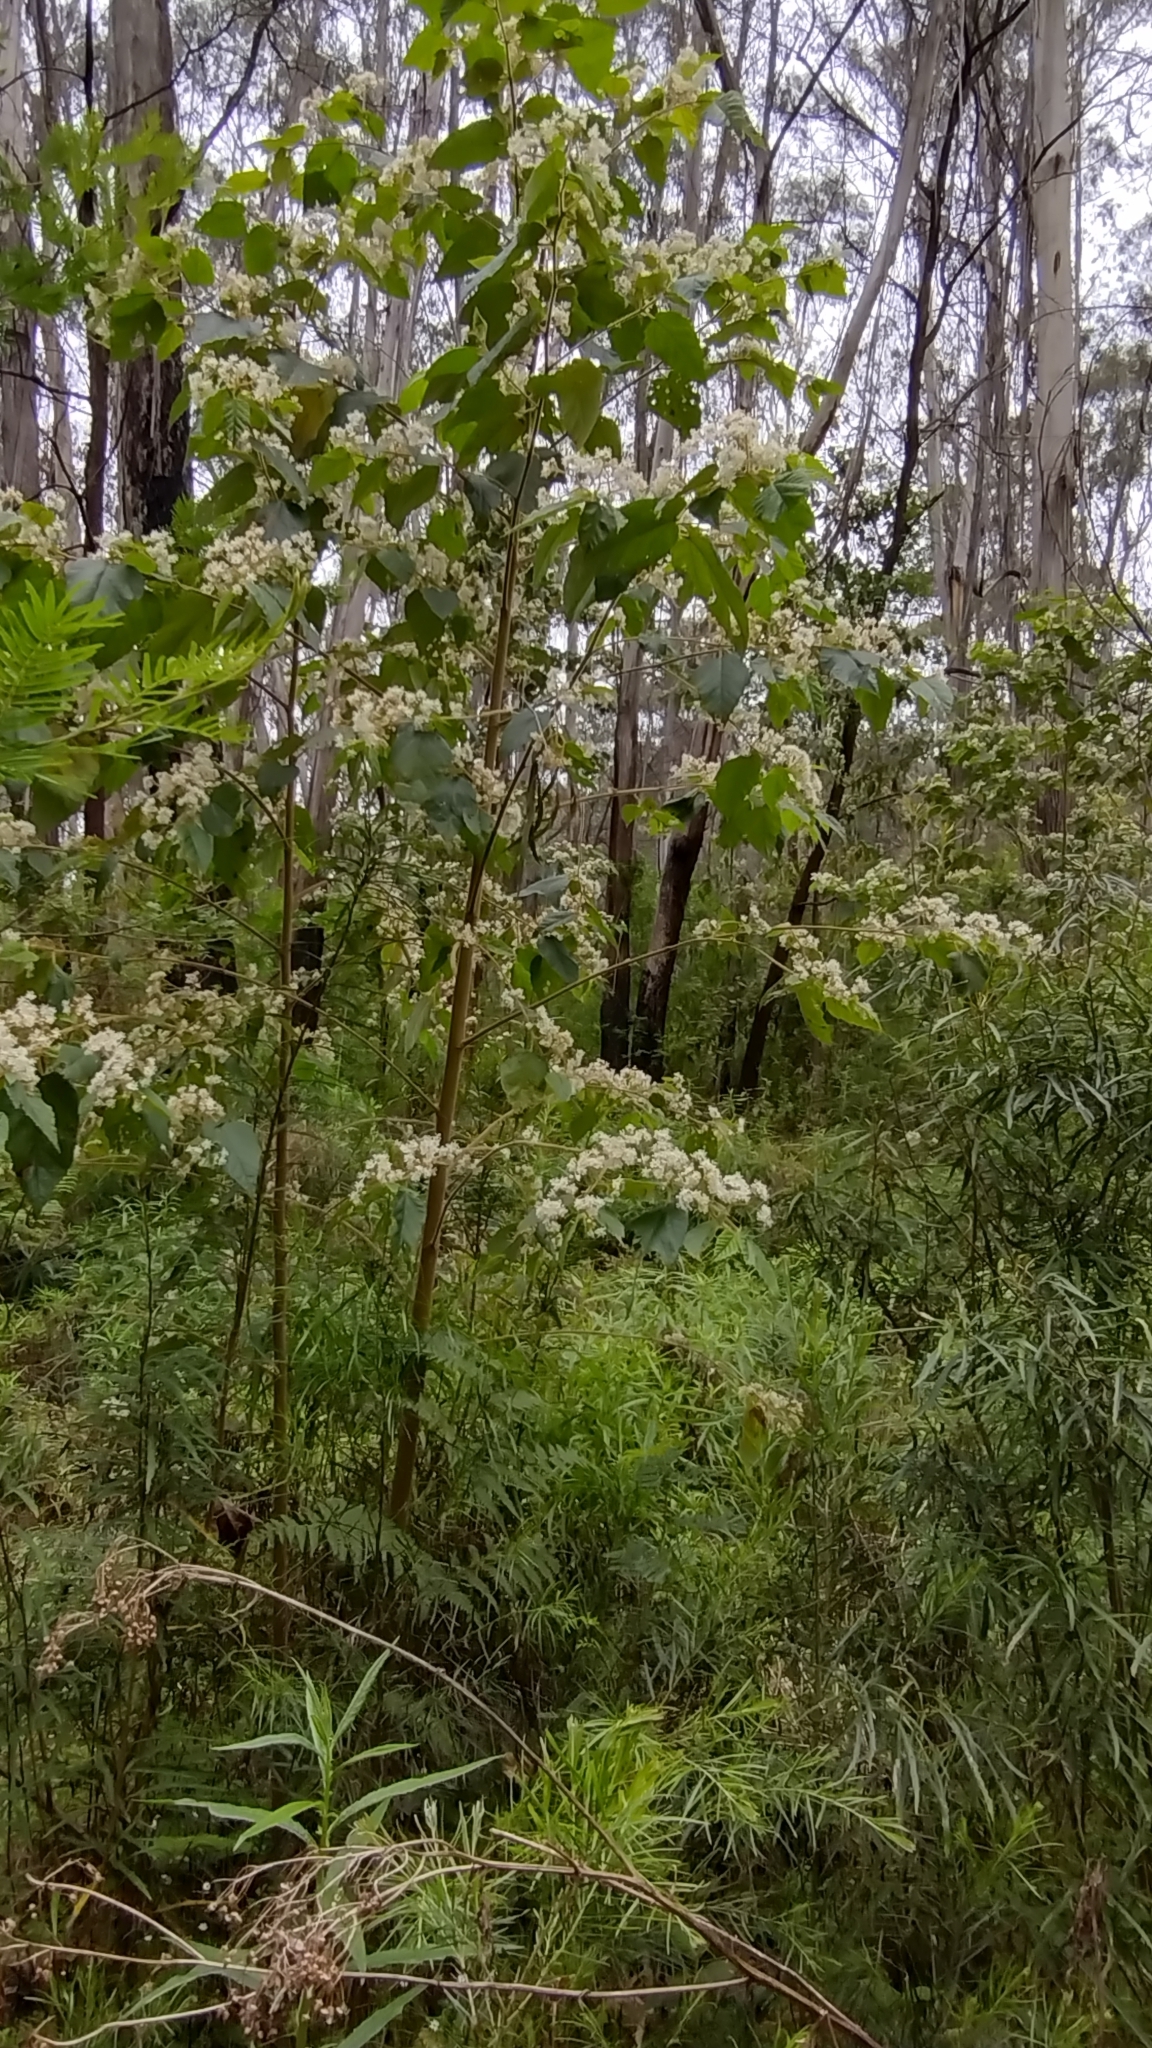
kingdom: Plantae
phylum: Tracheophyta
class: Magnoliopsida
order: Malvales
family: Malvaceae
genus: Androcalva
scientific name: Androcalva rossii
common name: Native hemp
